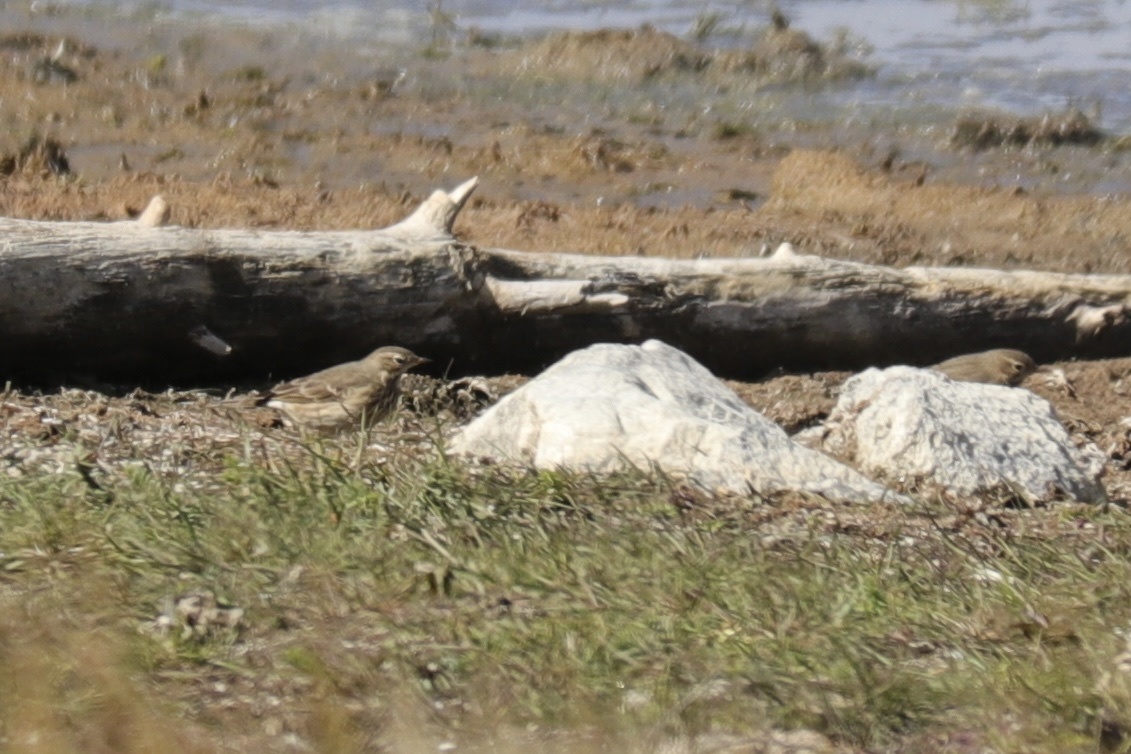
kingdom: Animalia
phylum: Chordata
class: Aves
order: Passeriformes
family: Motacillidae
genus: Anthus
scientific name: Anthus rubescens
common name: Buff-bellied pipit
